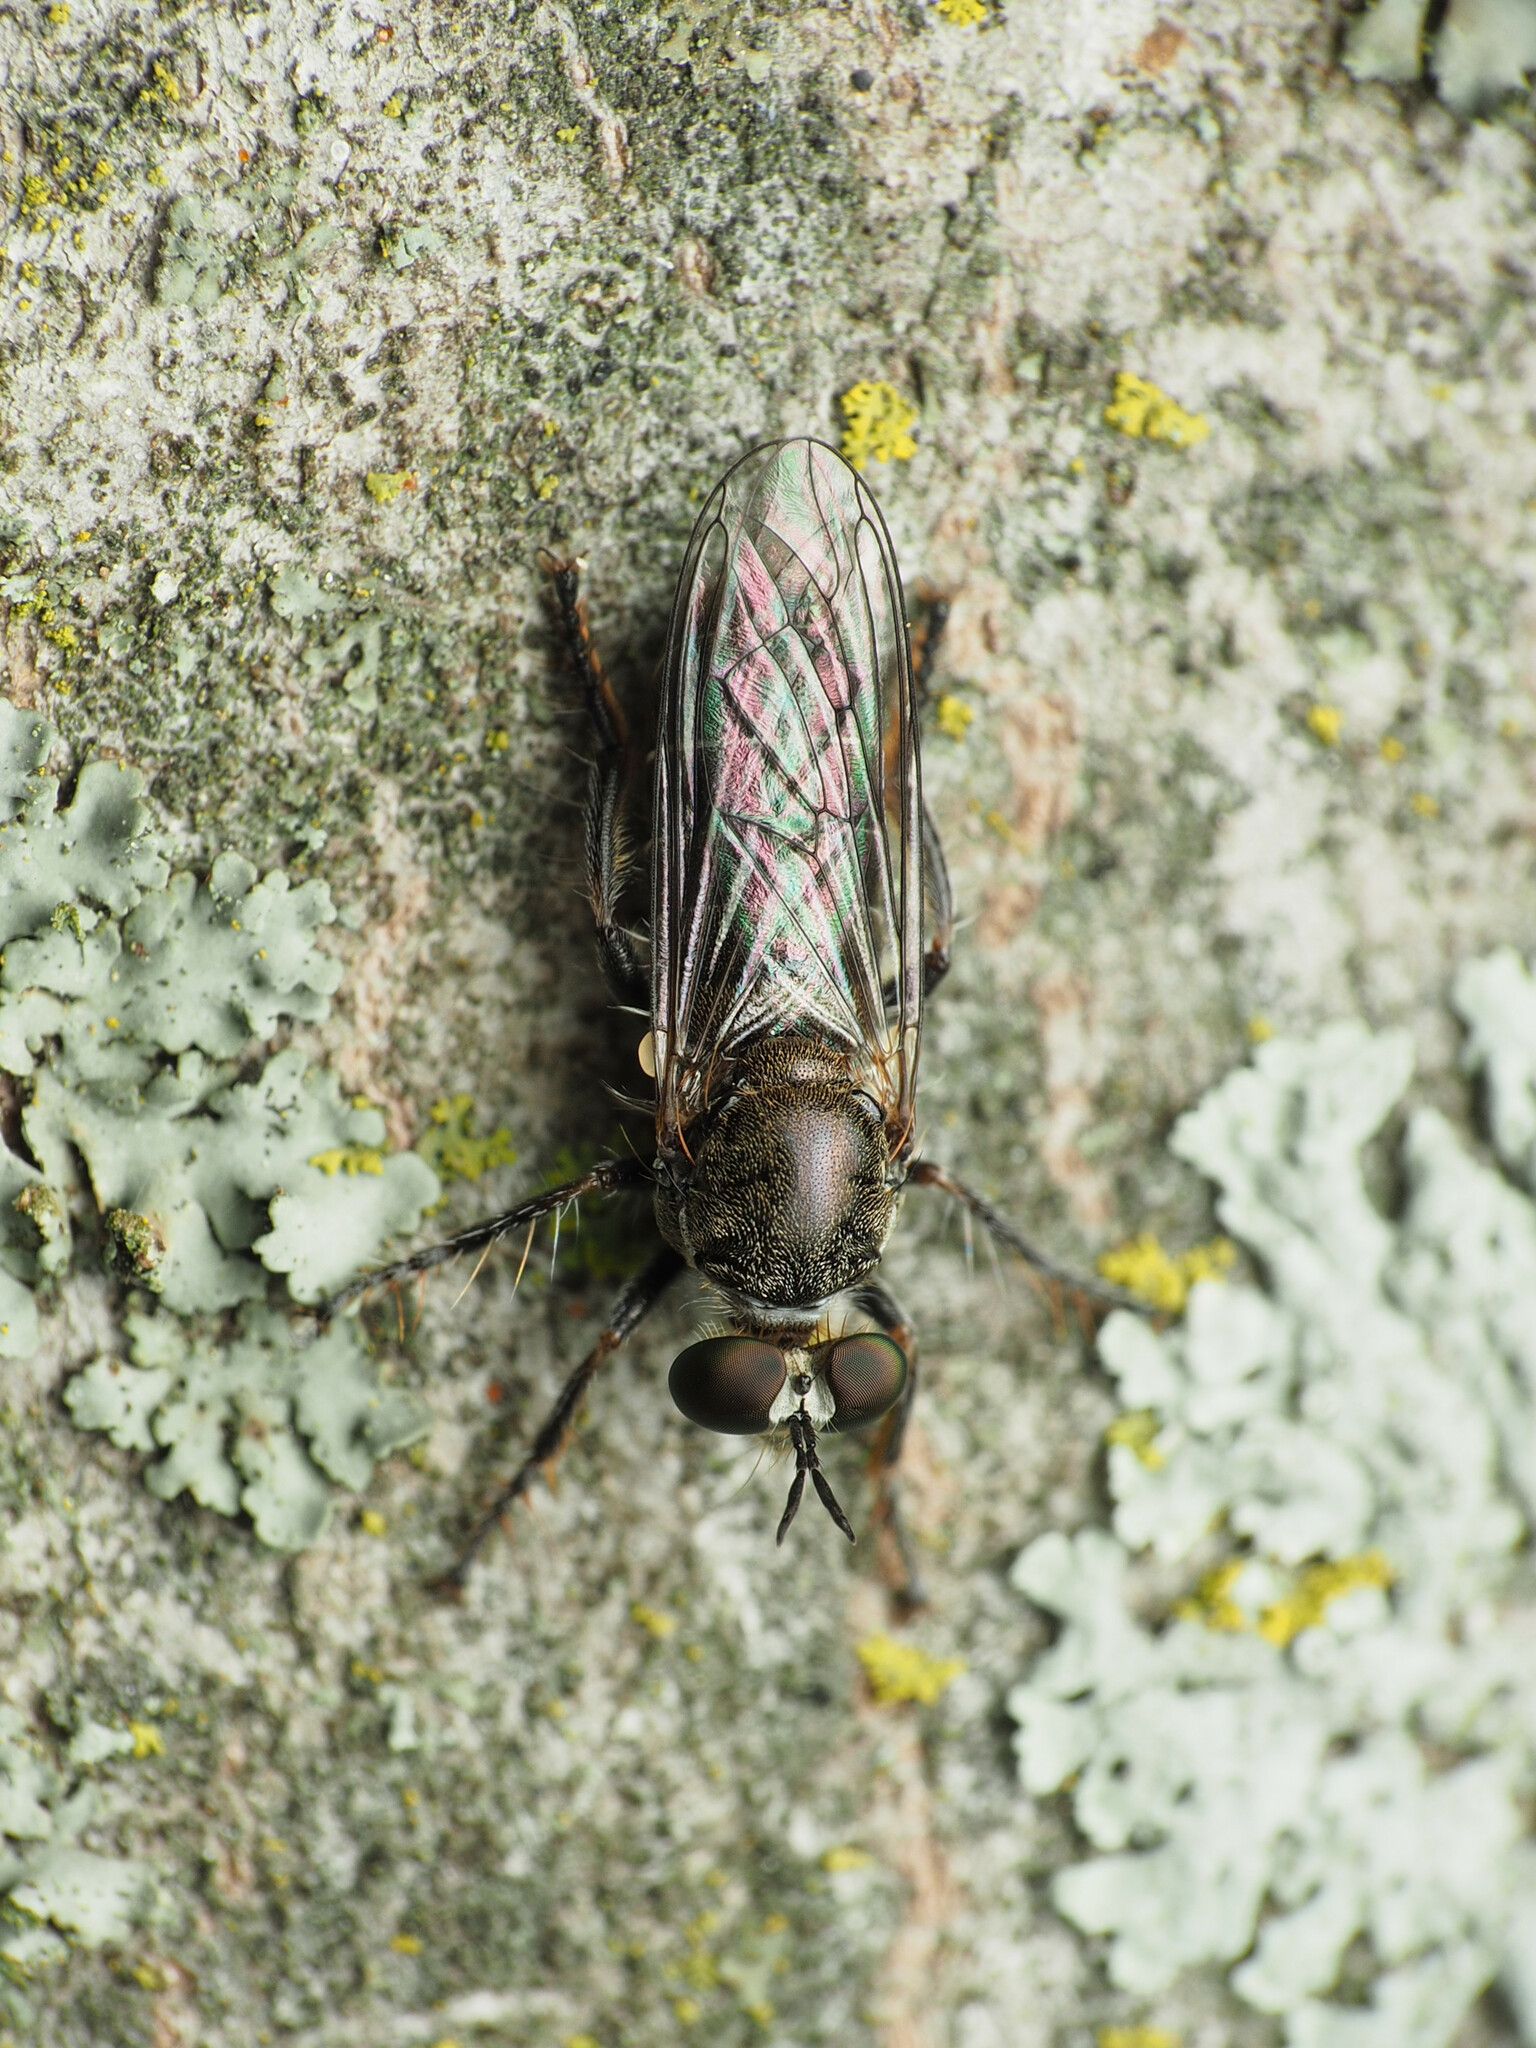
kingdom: Animalia
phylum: Arthropoda
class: Insecta
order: Diptera
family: Asilidae
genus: Atomosia
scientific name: Atomosia puella
